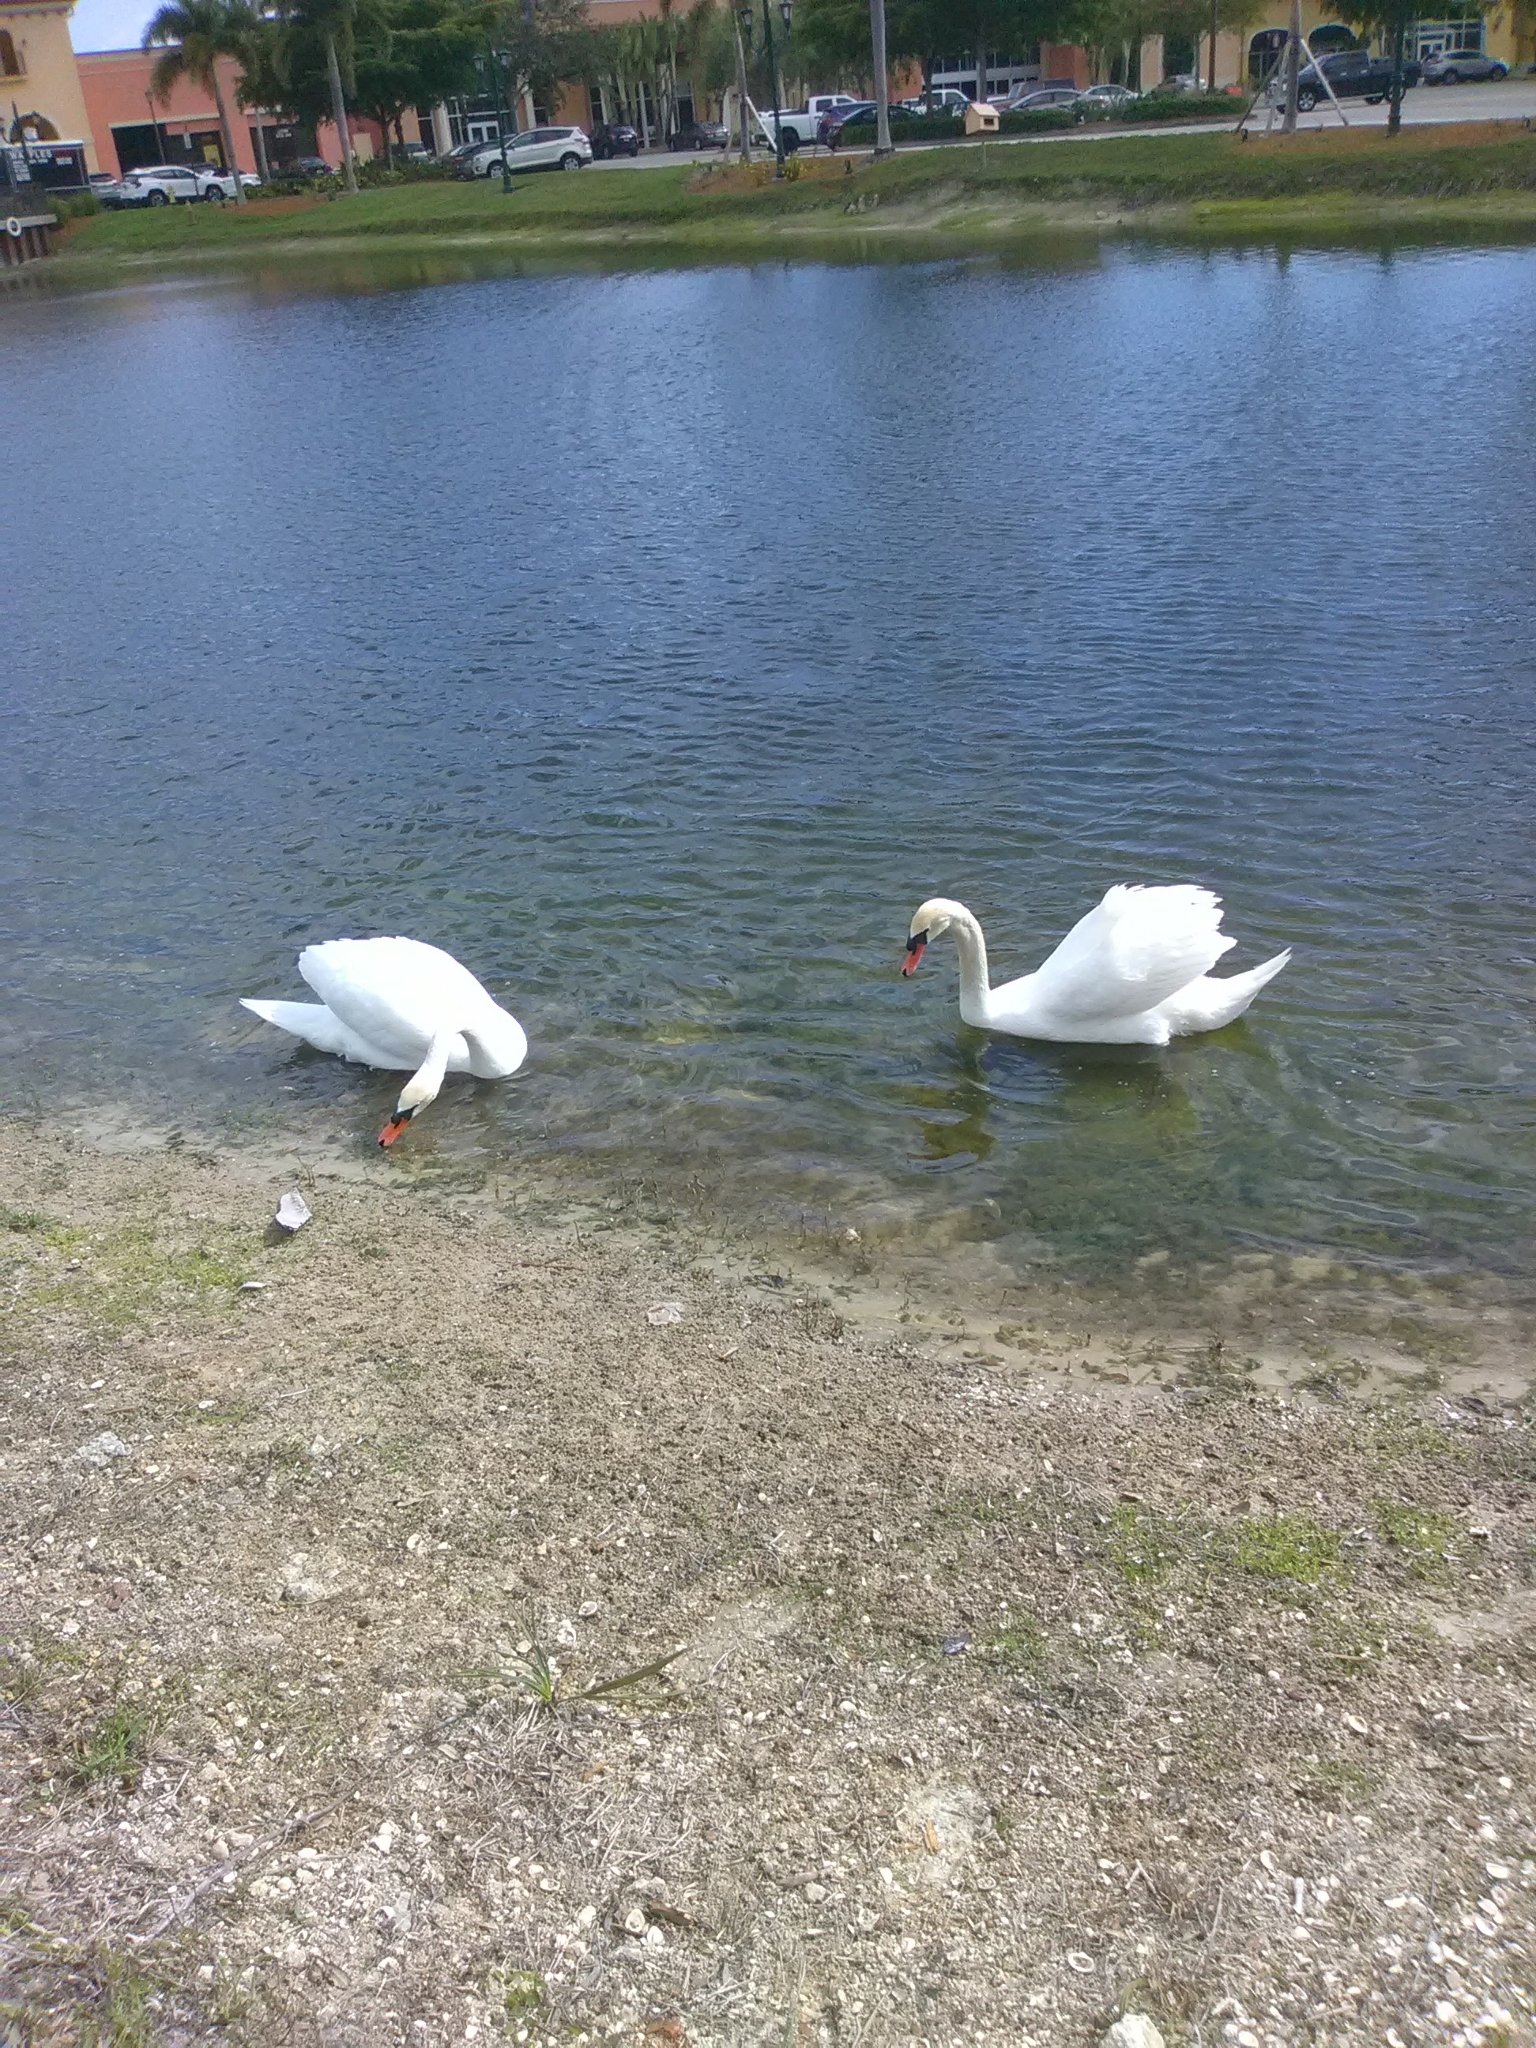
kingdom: Animalia
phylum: Chordata
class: Aves
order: Anseriformes
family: Anatidae
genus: Cygnus
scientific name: Cygnus olor
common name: Mute swan
